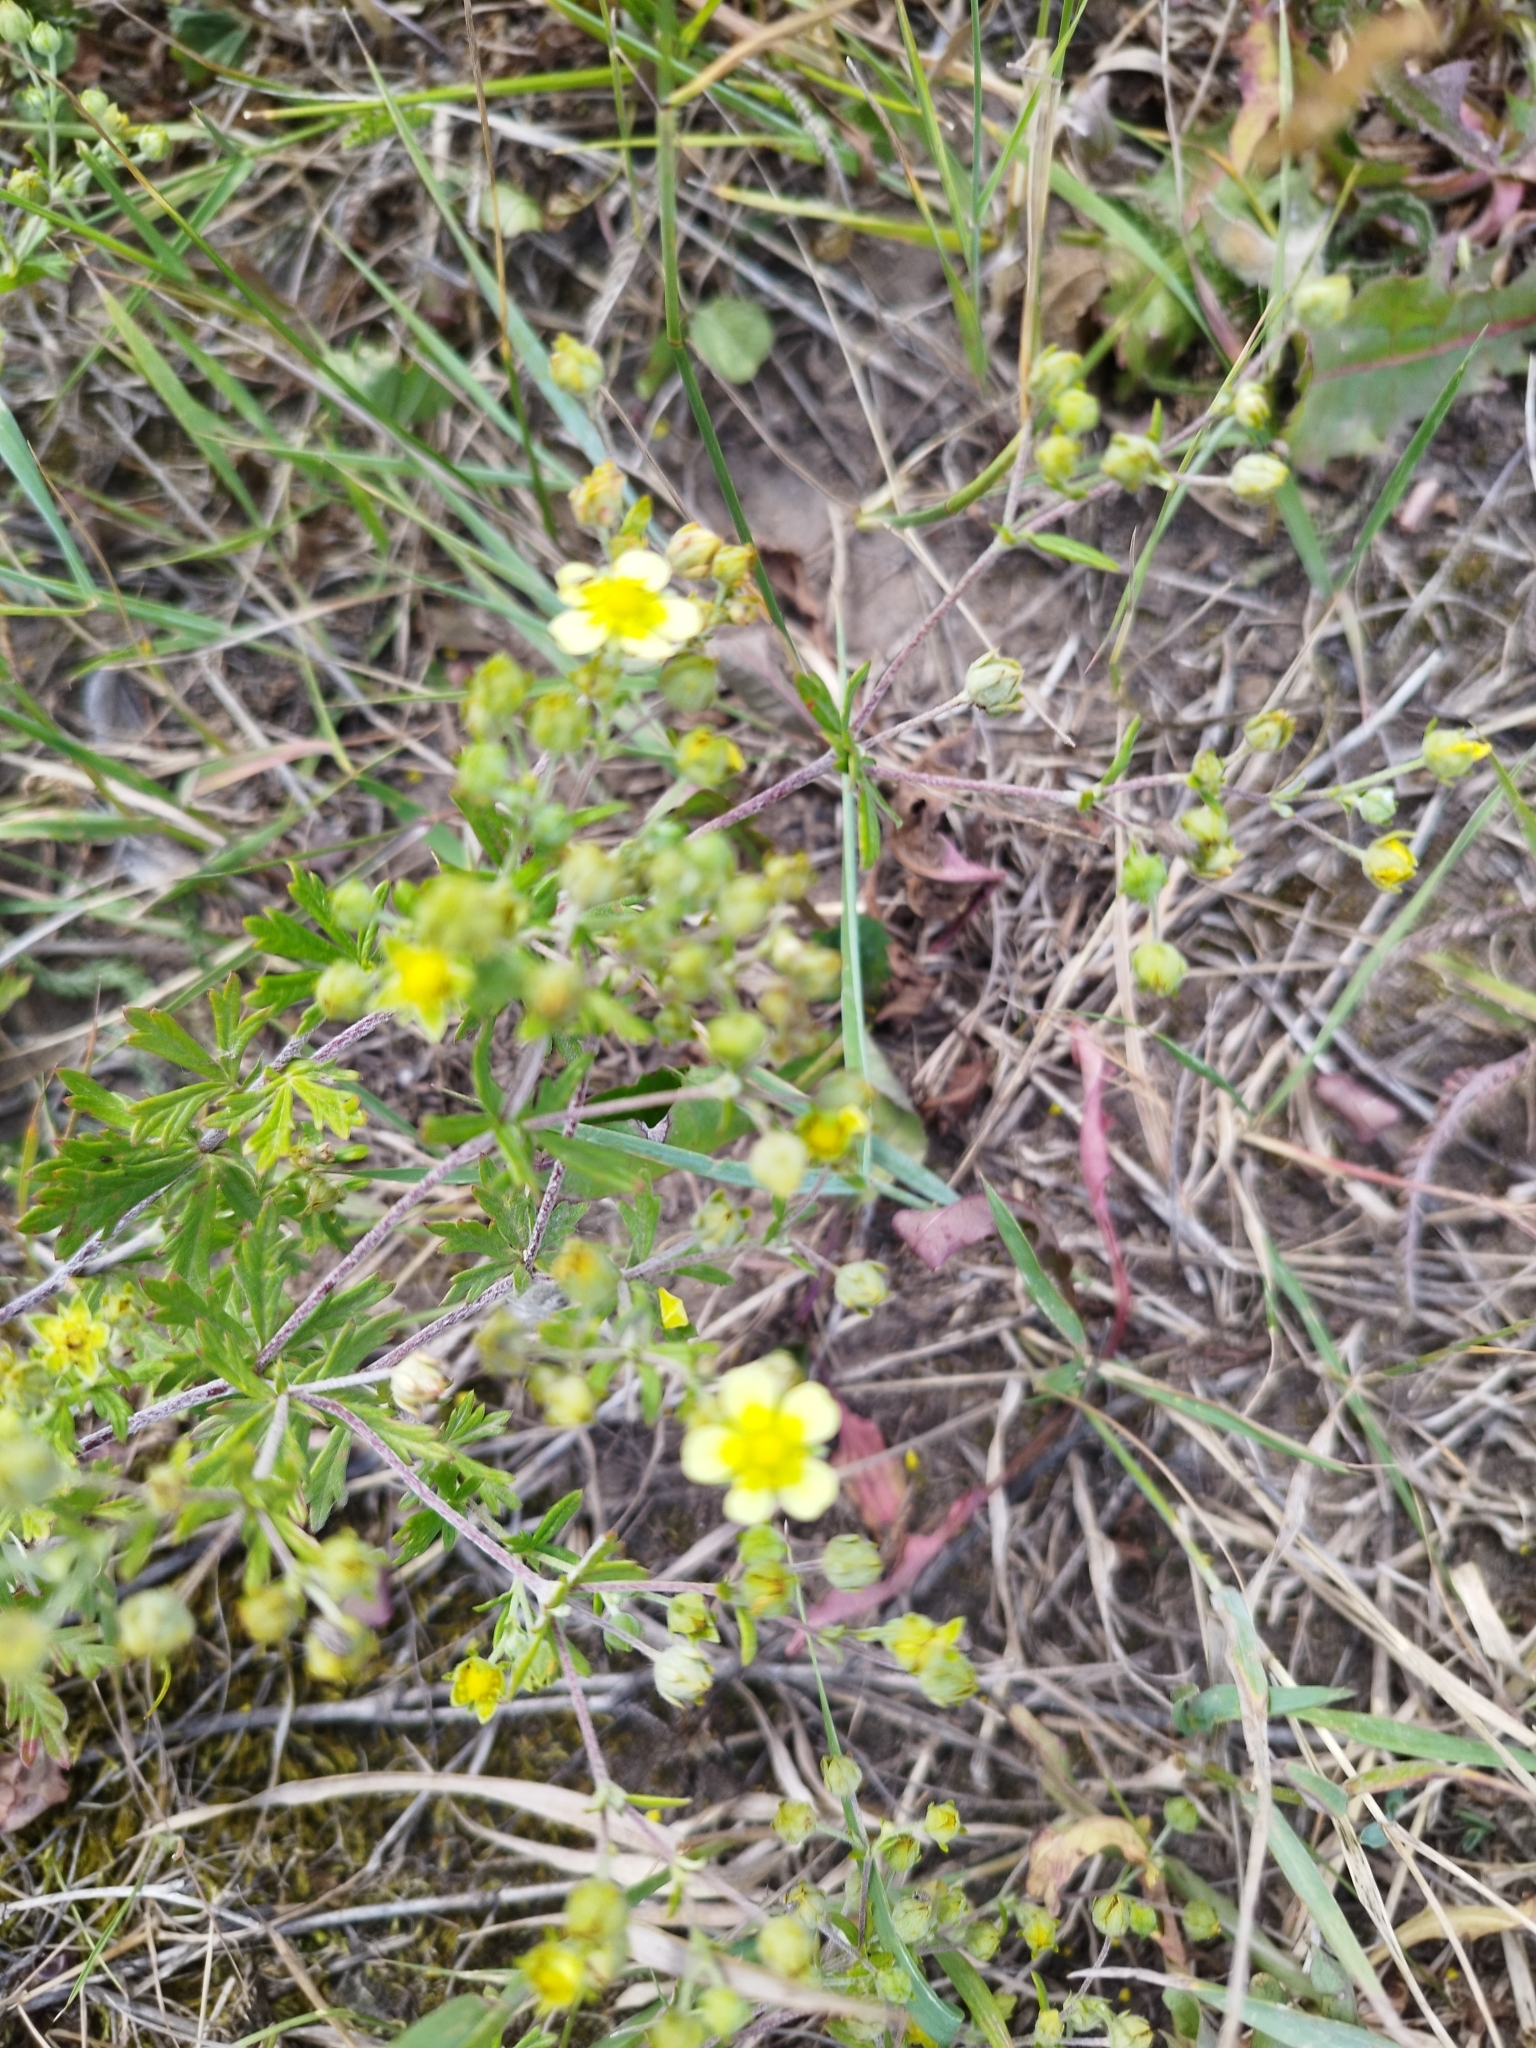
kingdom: Plantae
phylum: Tracheophyta
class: Magnoliopsida
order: Rosales
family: Rosaceae
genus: Potentilla
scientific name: Potentilla argentea
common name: Hoary cinquefoil
